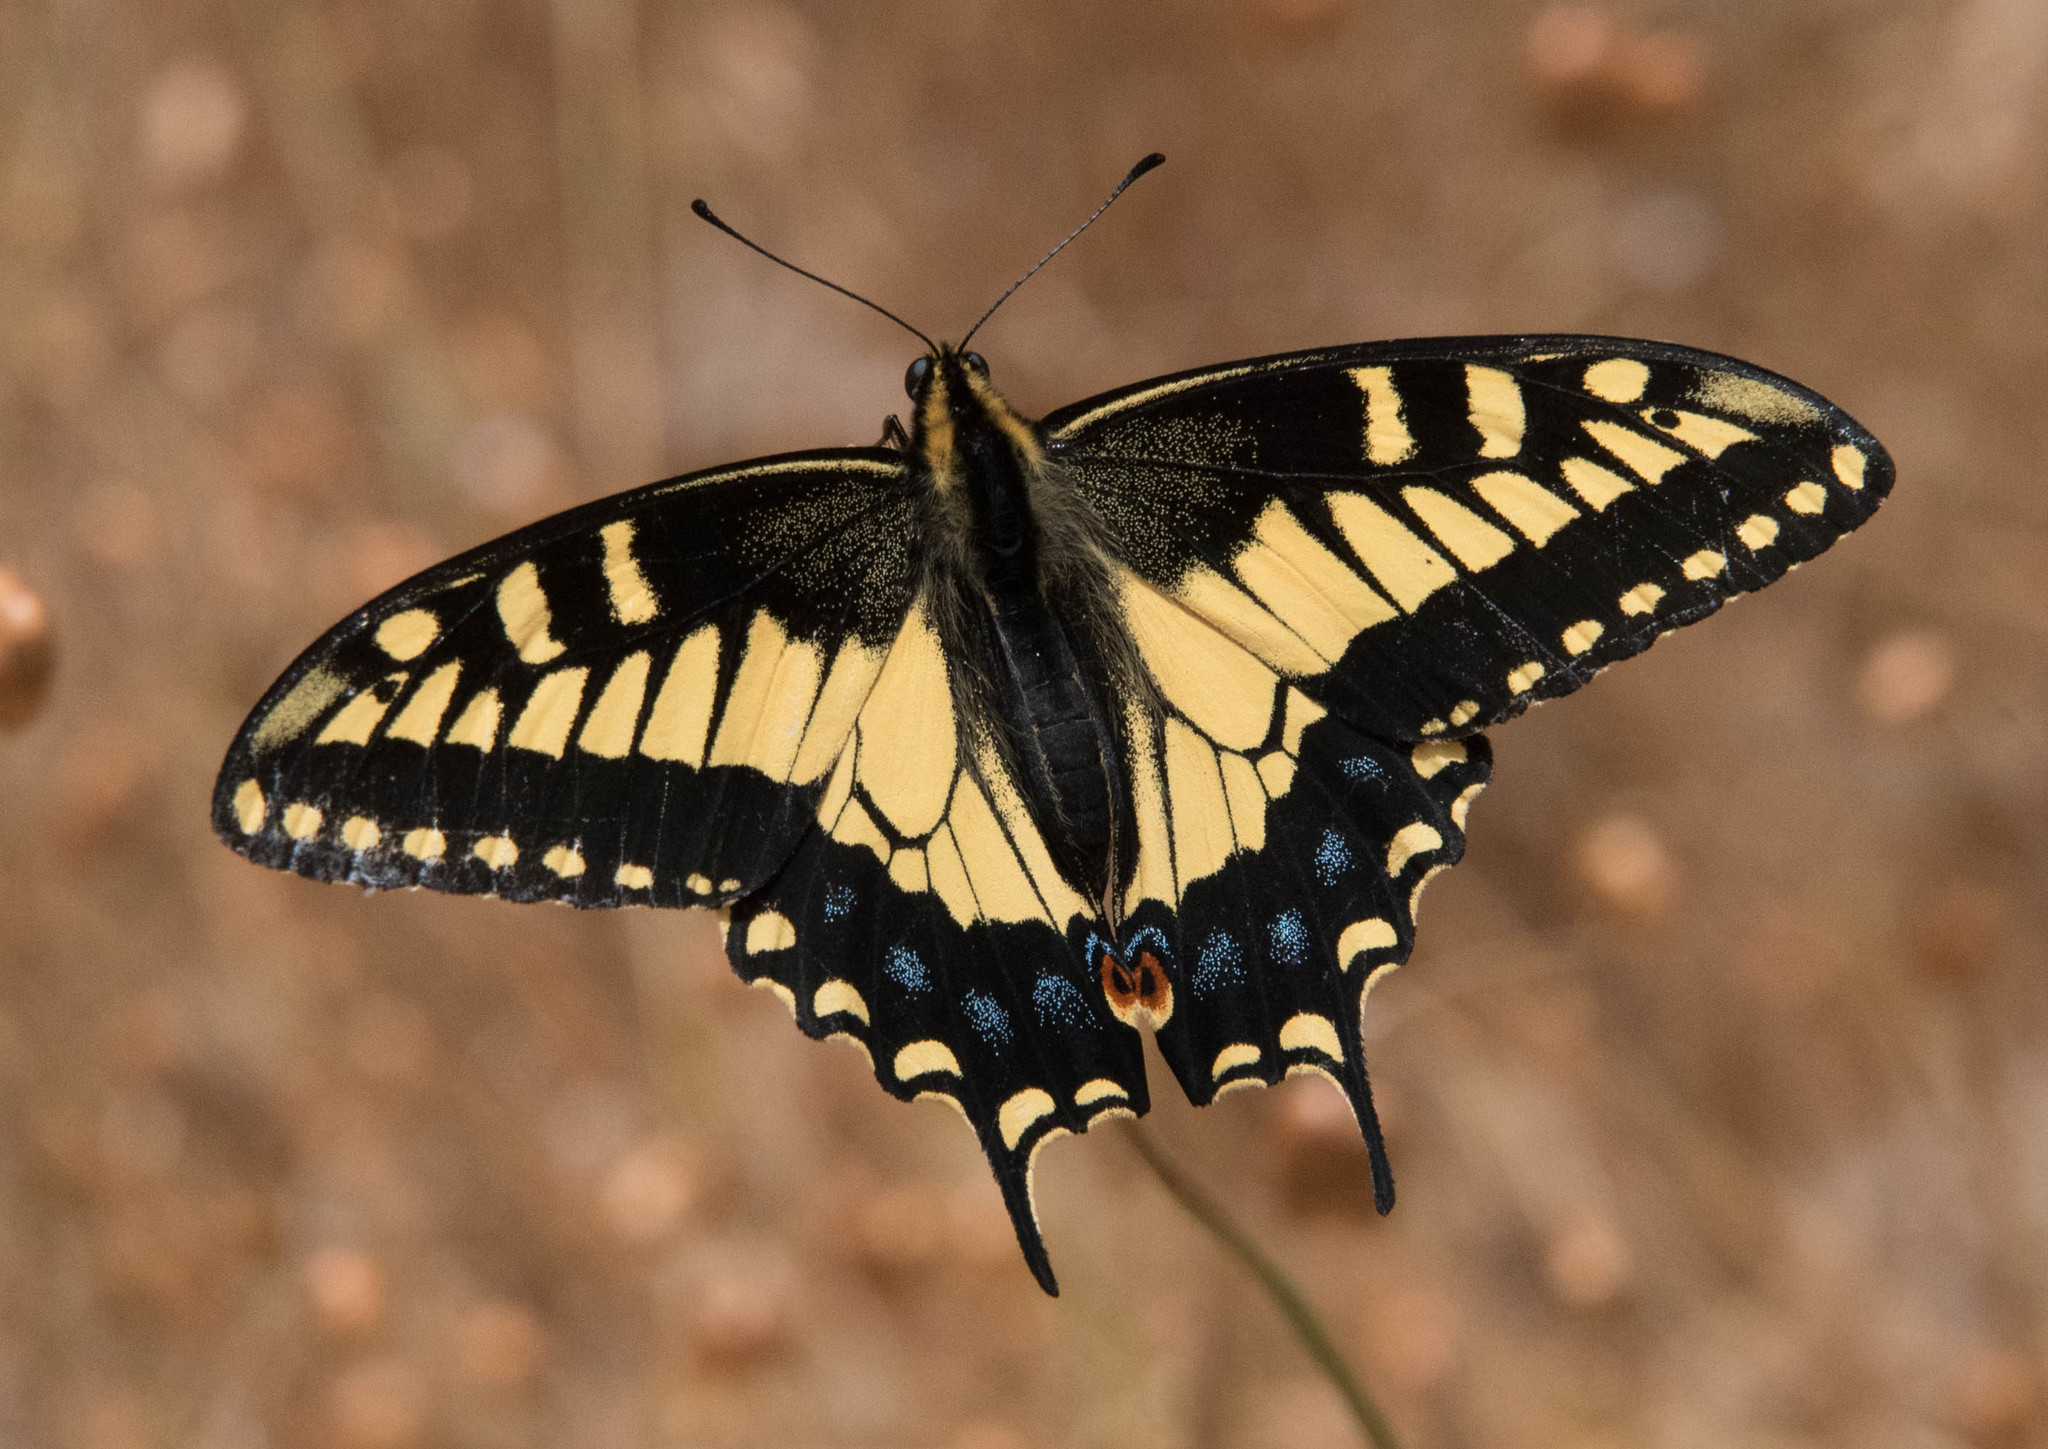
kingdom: Animalia
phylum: Arthropoda
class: Insecta
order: Lepidoptera
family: Papilionidae
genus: Papilio
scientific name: Papilio zelicaon
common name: Anise swallowtail
